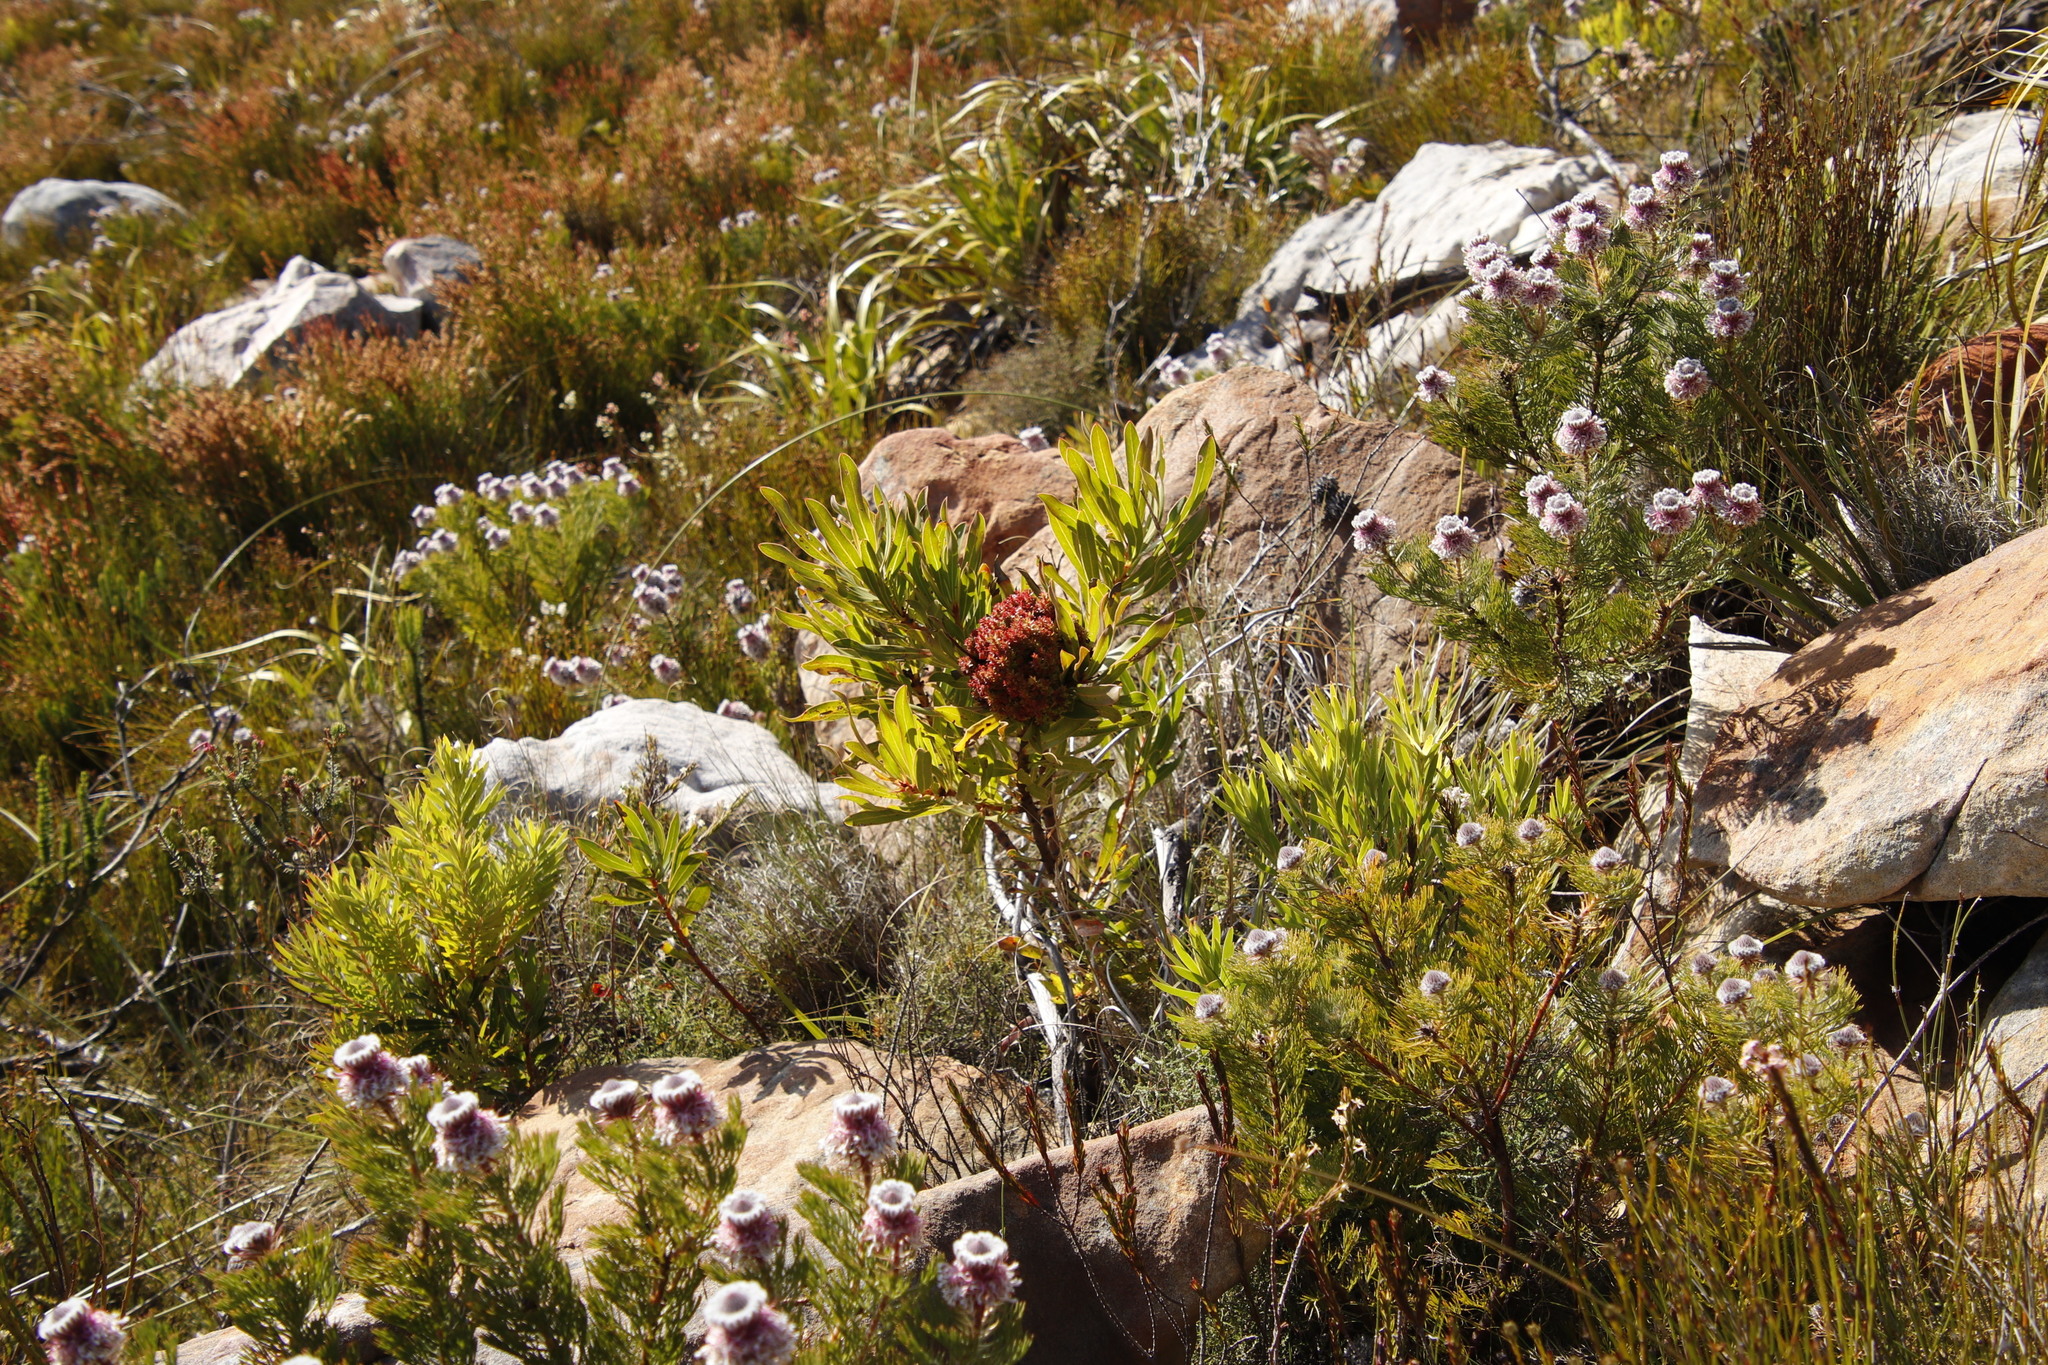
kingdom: Plantae
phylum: Tracheophyta
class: Magnoliopsida
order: Proteales
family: Proteaceae
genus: Protea
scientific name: Protea lepidocarpodendron
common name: Black-bearded protea
